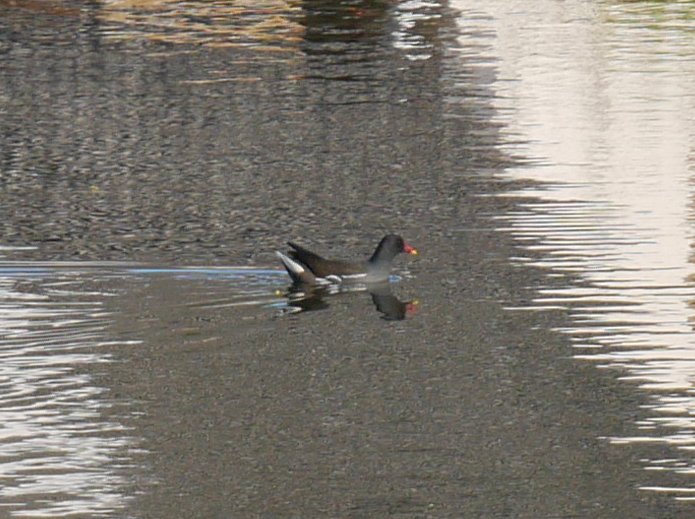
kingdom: Animalia
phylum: Chordata
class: Aves
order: Gruiformes
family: Rallidae
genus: Gallinula
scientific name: Gallinula chloropus
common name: Common moorhen
